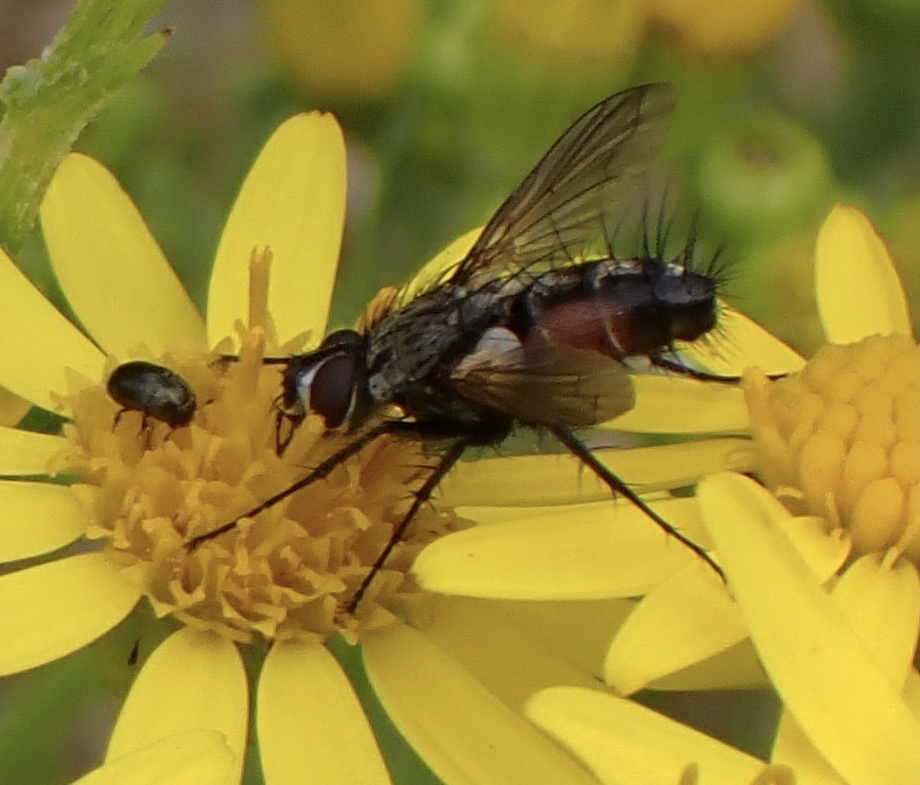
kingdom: Animalia
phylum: Arthropoda
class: Insecta
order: Diptera
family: Tachinidae
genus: Eriothrix
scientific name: Eriothrix rufomaculatus
